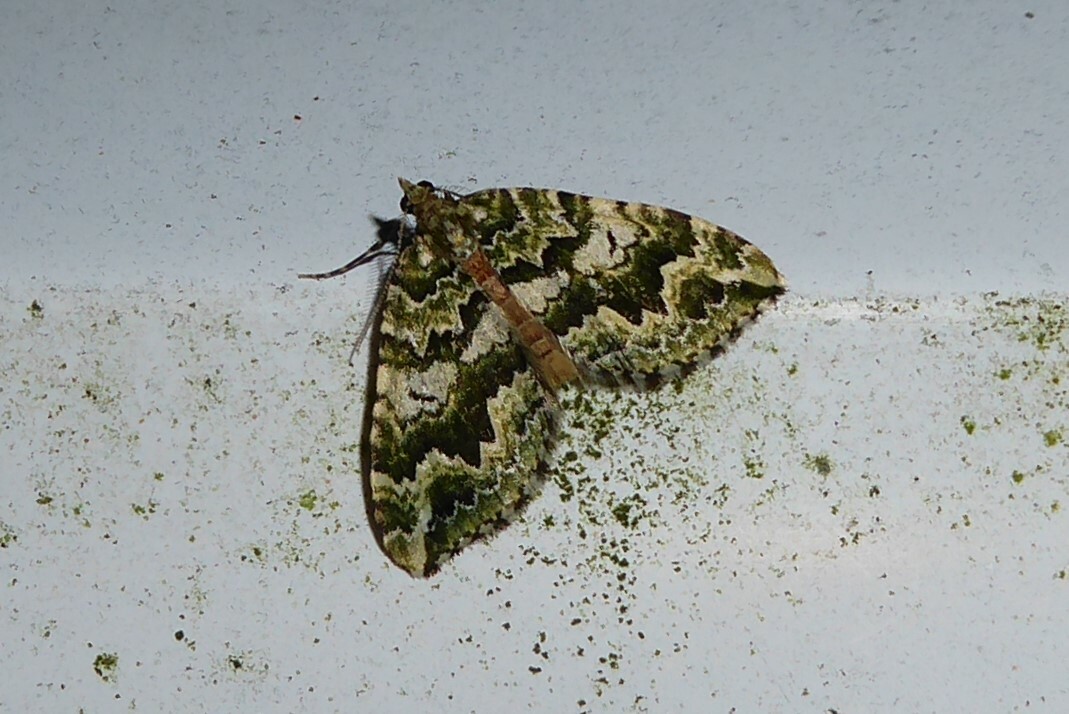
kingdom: Animalia
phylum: Arthropoda
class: Insecta
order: Lepidoptera
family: Geometridae
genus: Asaphodes
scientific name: Asaphodes beata
